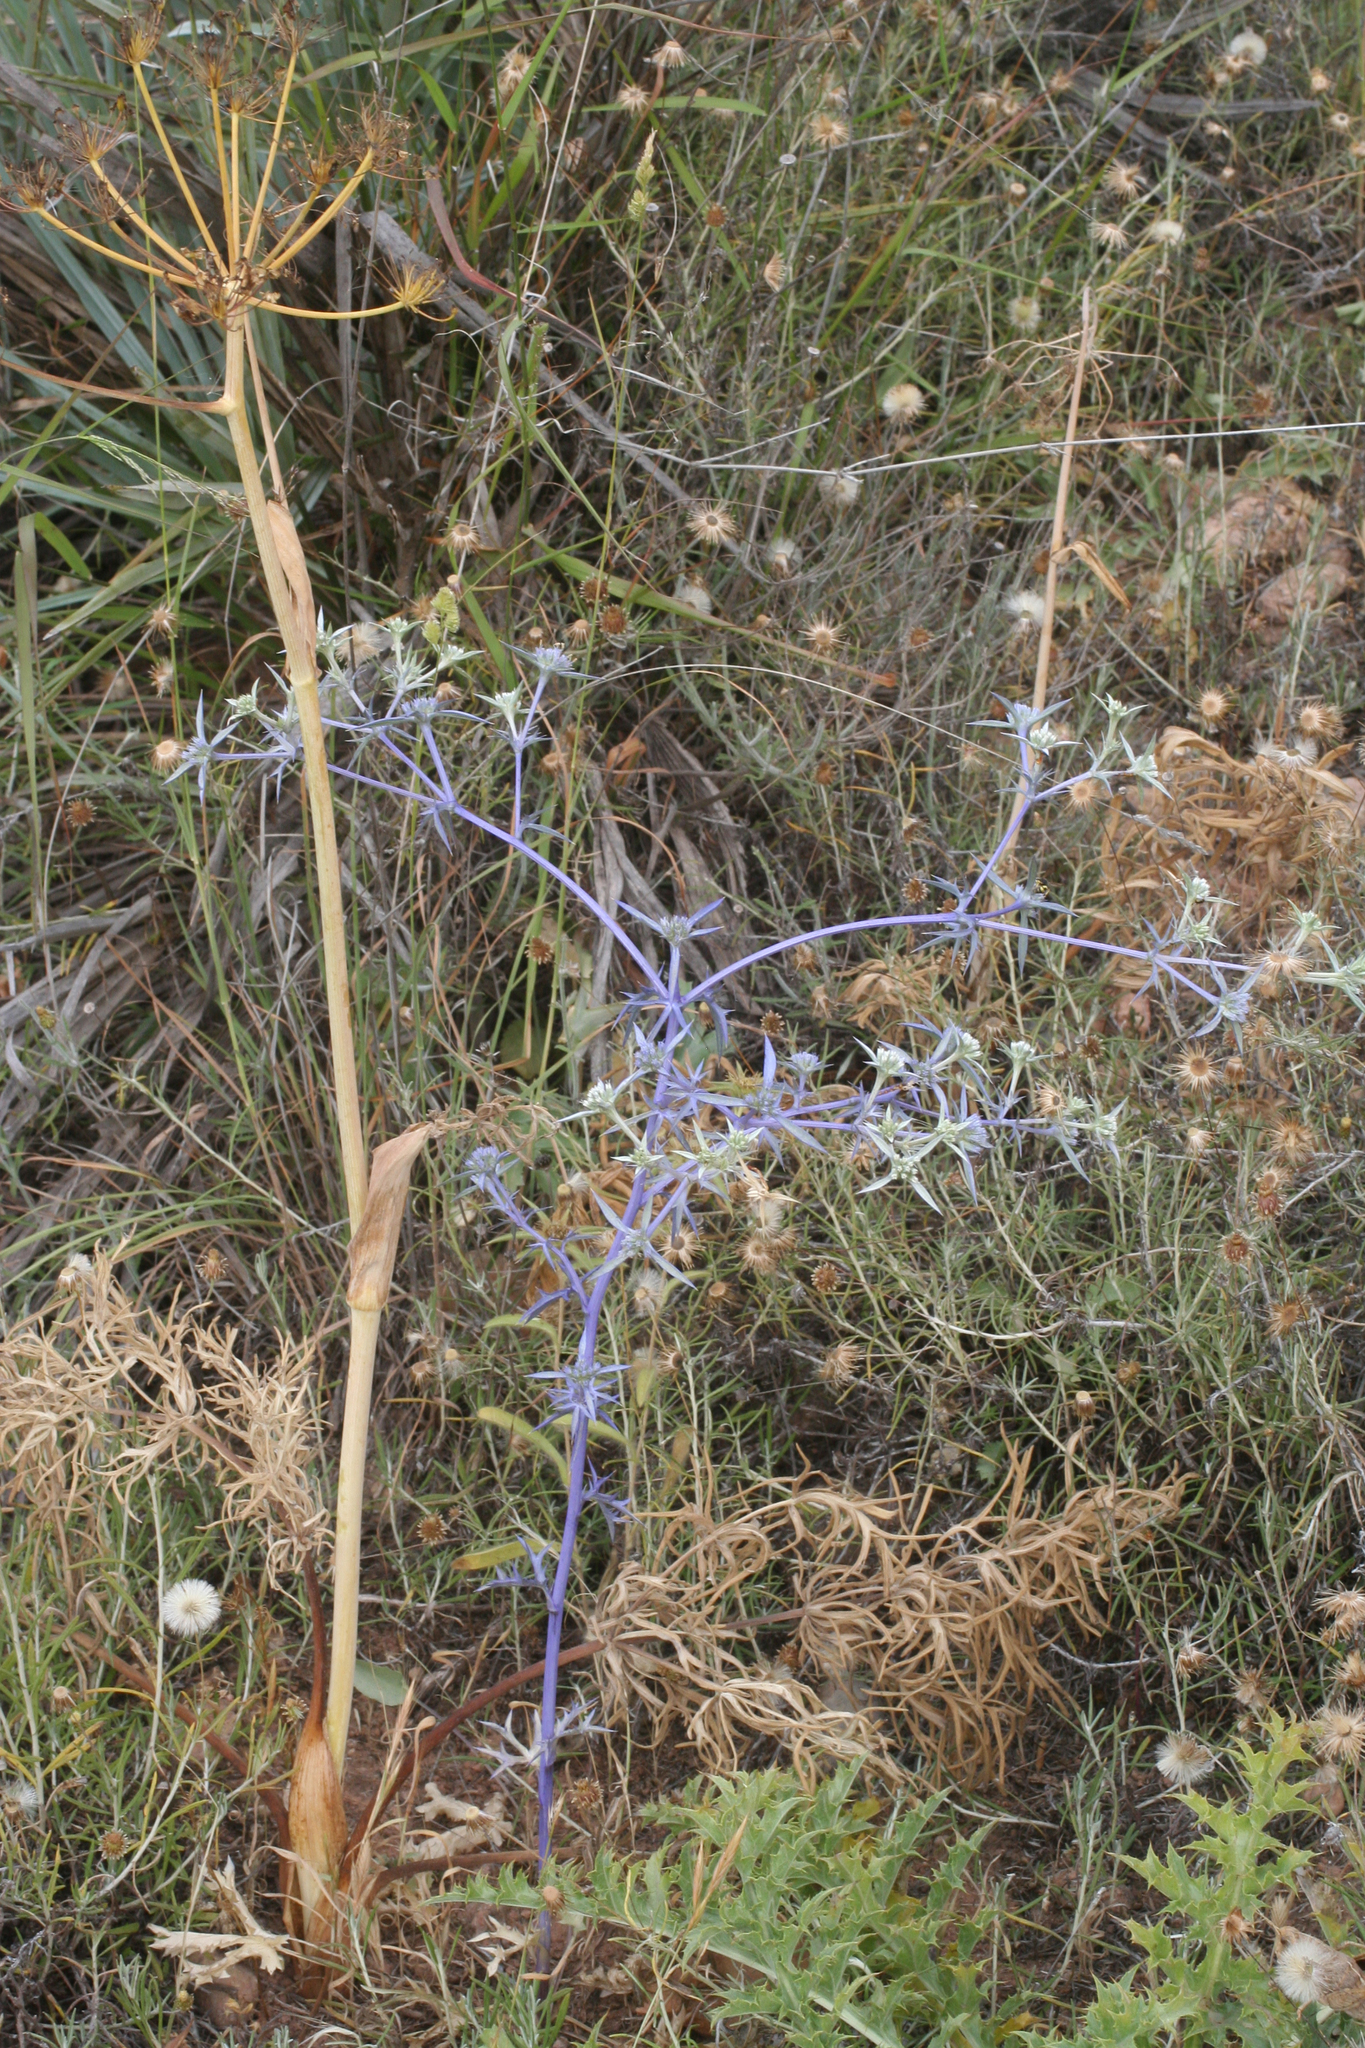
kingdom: Plantae
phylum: Tracheophyta
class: Magnoliopsida
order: Apiales
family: Apiaceae
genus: Eryngium
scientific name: Eryngium triquetrum
